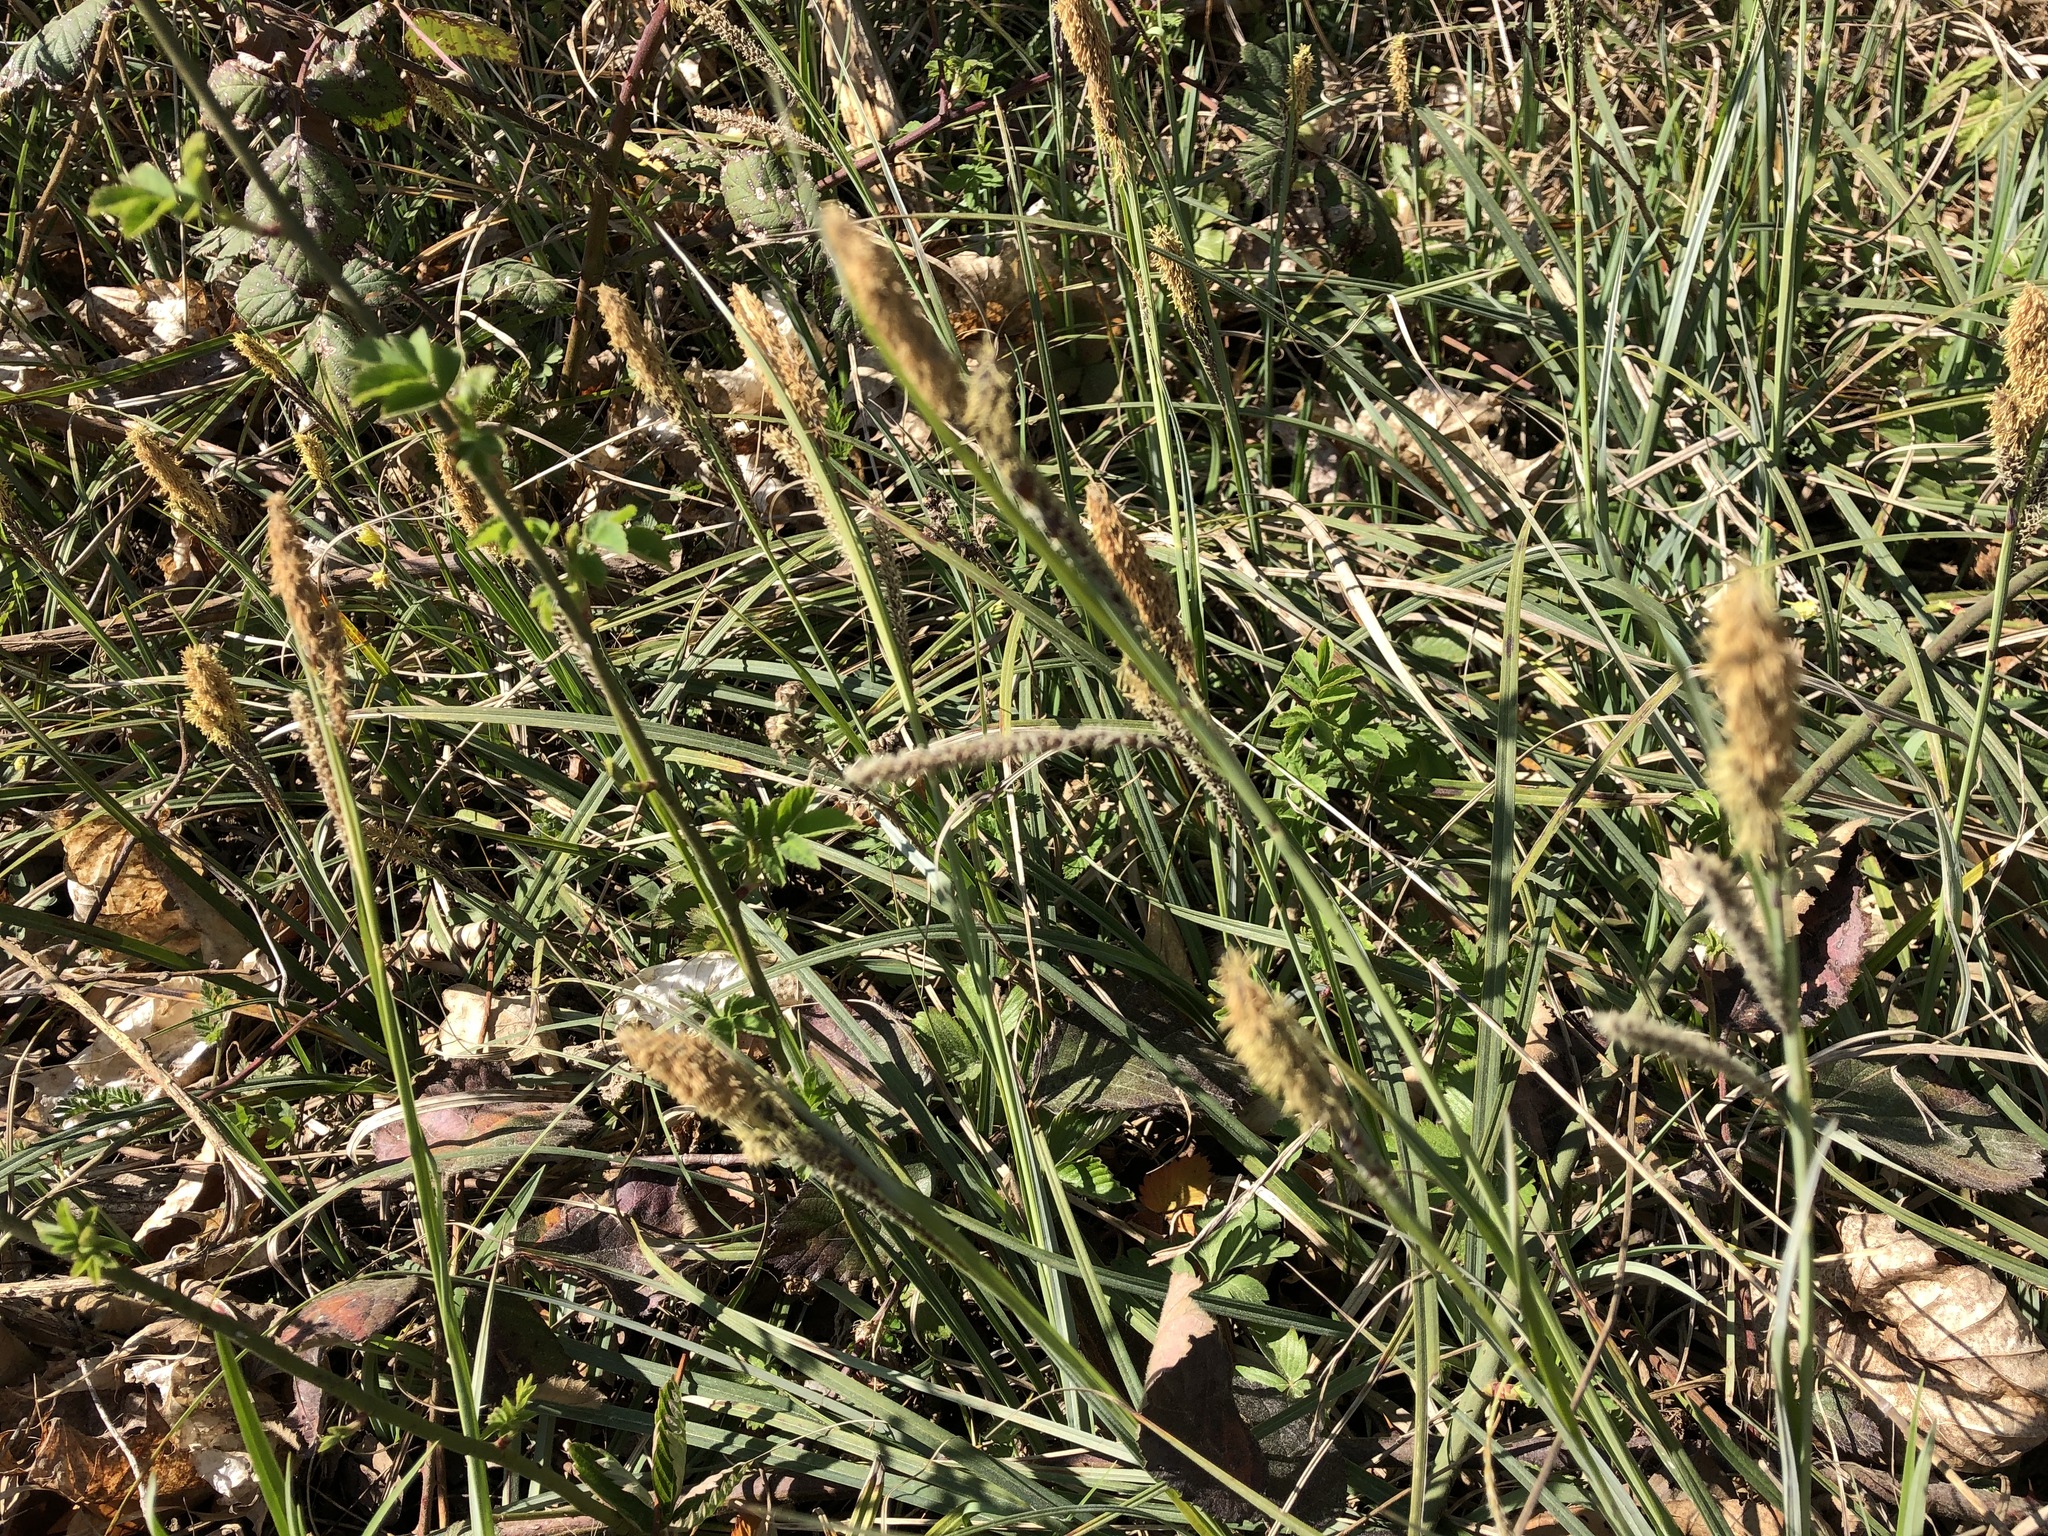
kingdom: Plantae
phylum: Tracheophyta
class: Liliopsida
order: Poales
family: Cyperaceae
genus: Carex
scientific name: Carex flacca
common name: Glaucous sedge
